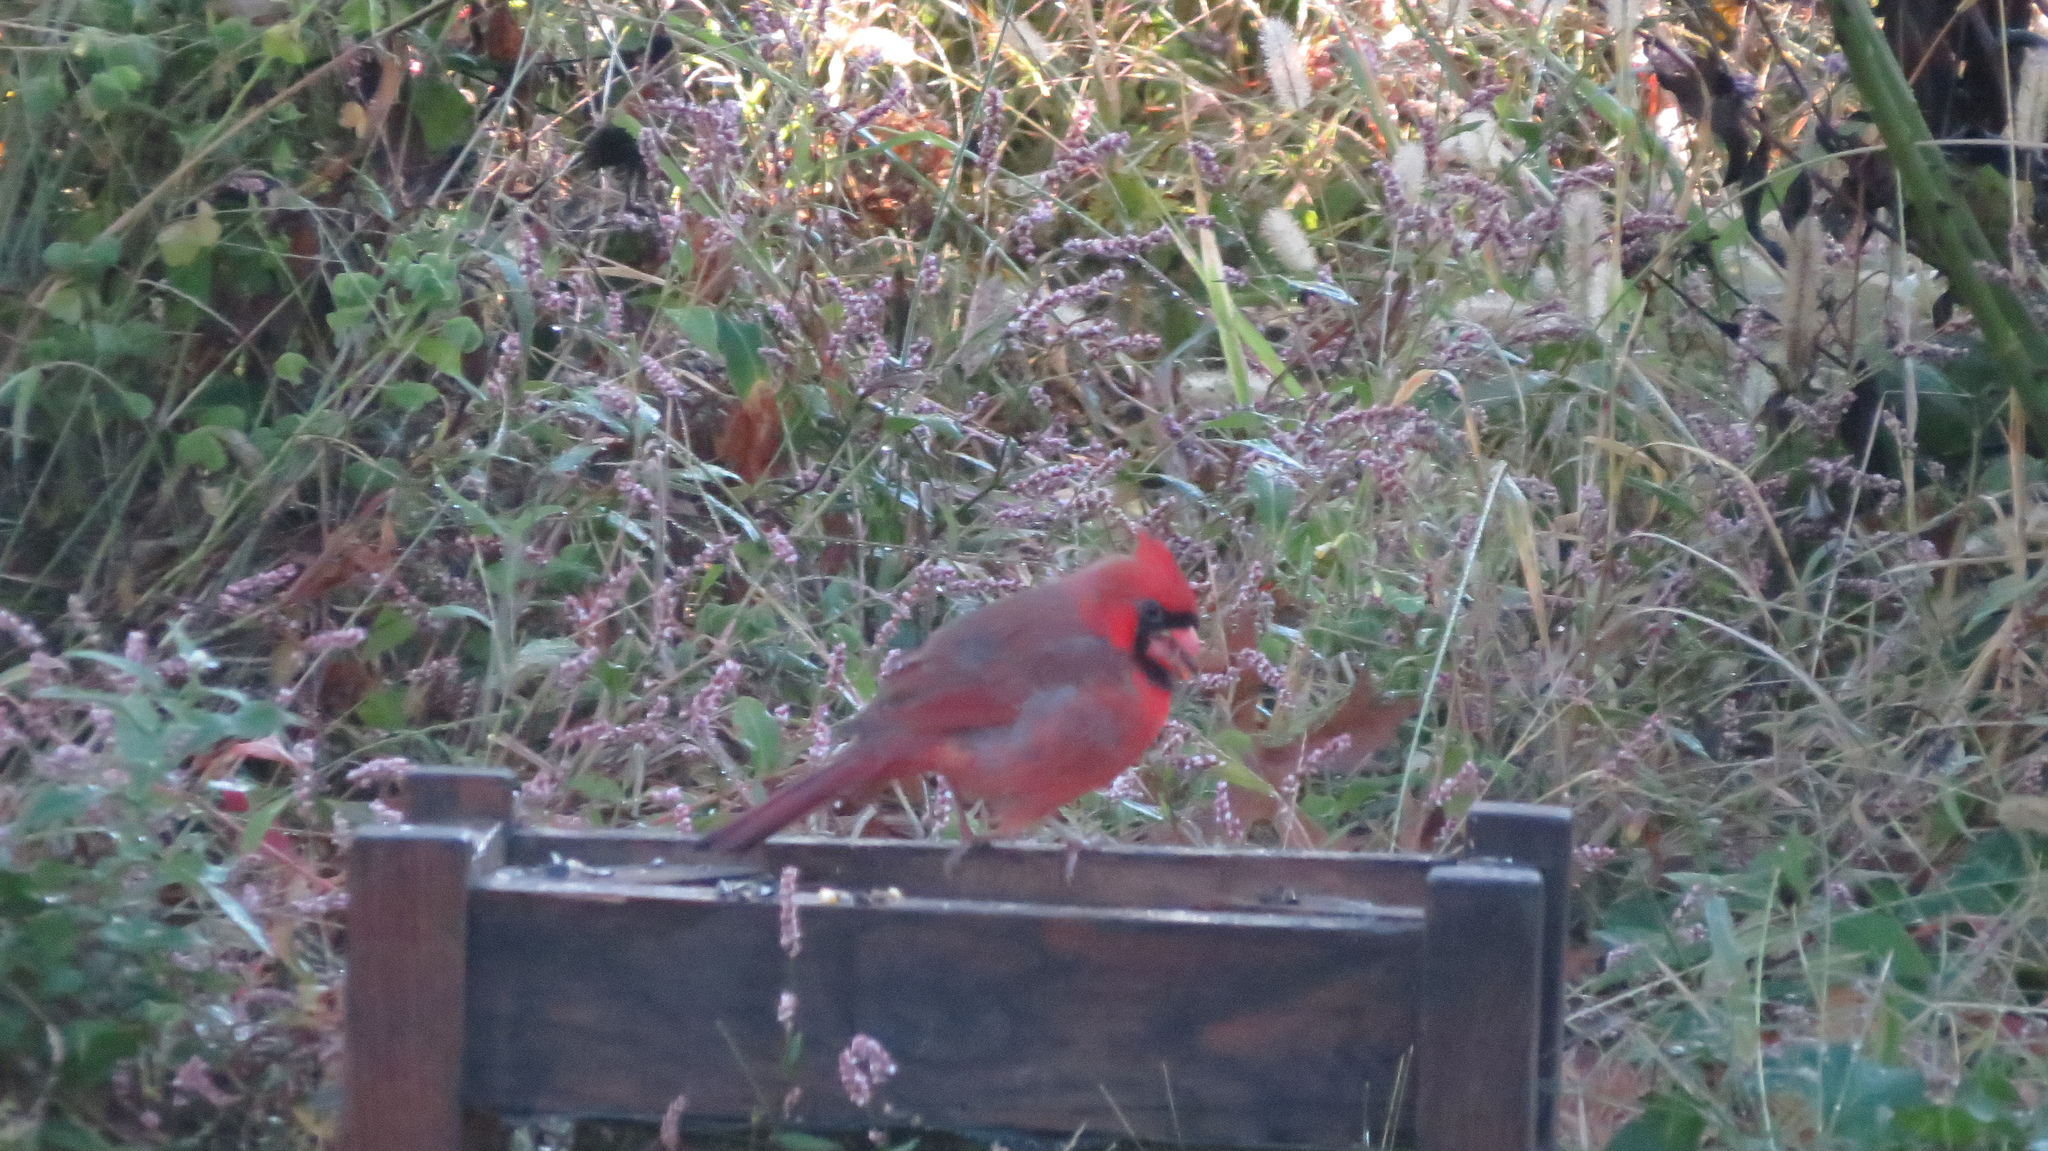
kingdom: Animalia
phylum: Chordata
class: Aves
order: Passeriformes
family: Cardinalidae
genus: Cardinalis
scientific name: Cardinalis cardinalis
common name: Northern cardinal
